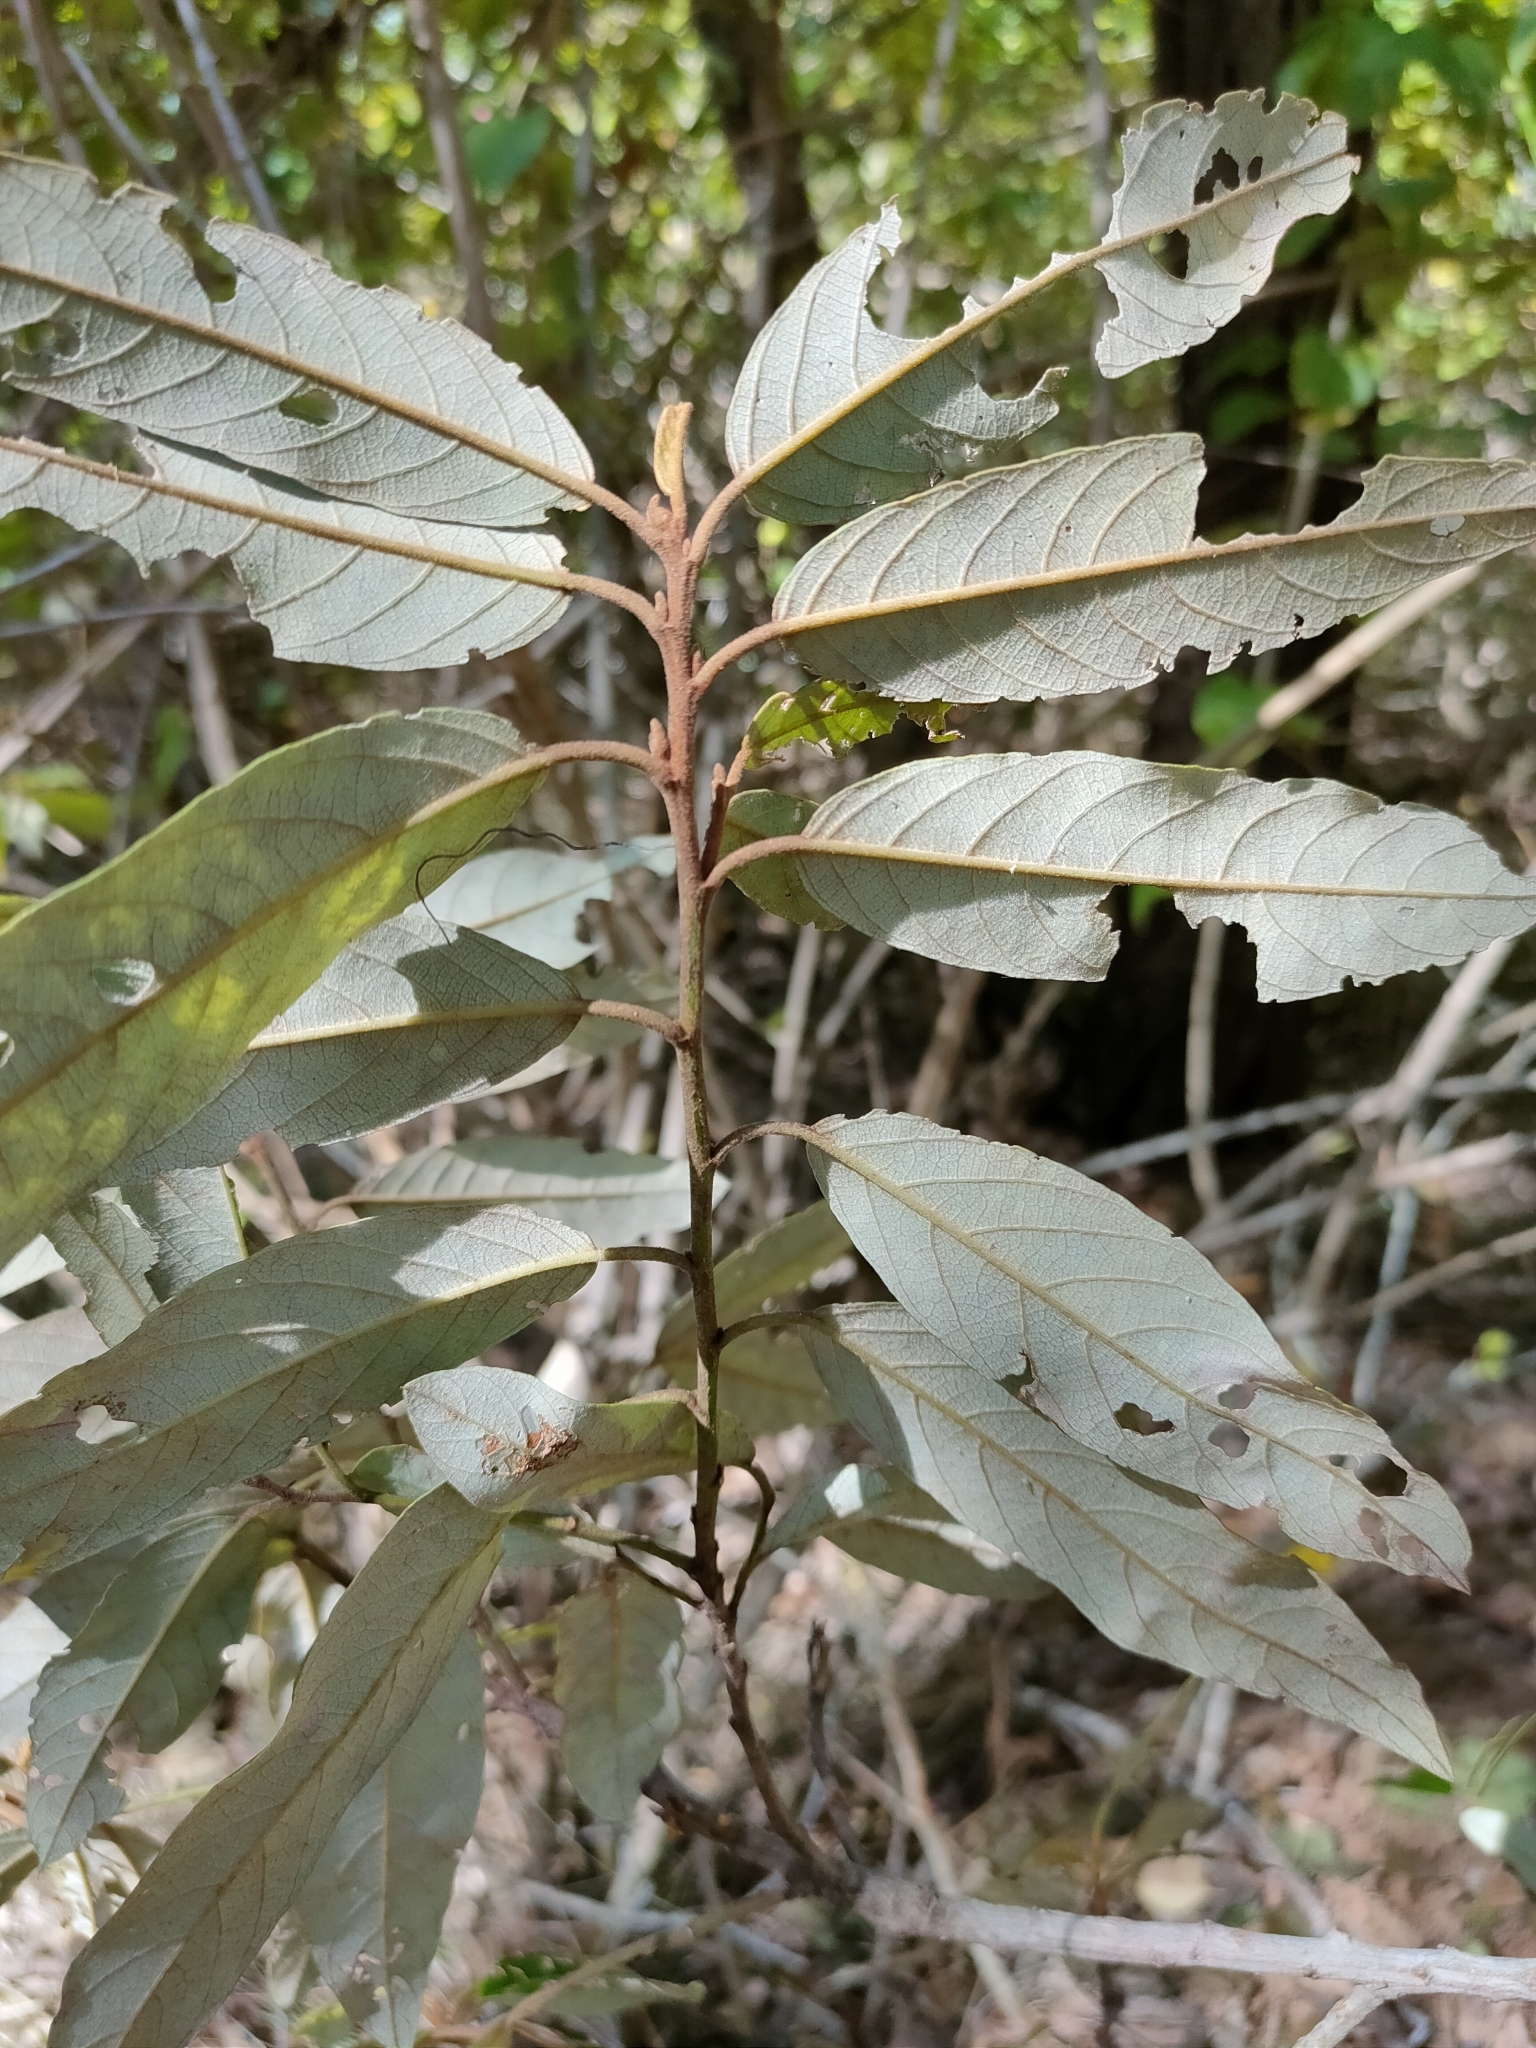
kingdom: Plantae
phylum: Tracheophyta
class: Magnoliopsida
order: Rosales
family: Rhamnaceae
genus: Alphitonia
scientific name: Alphitonia excelsa
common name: Red ash
